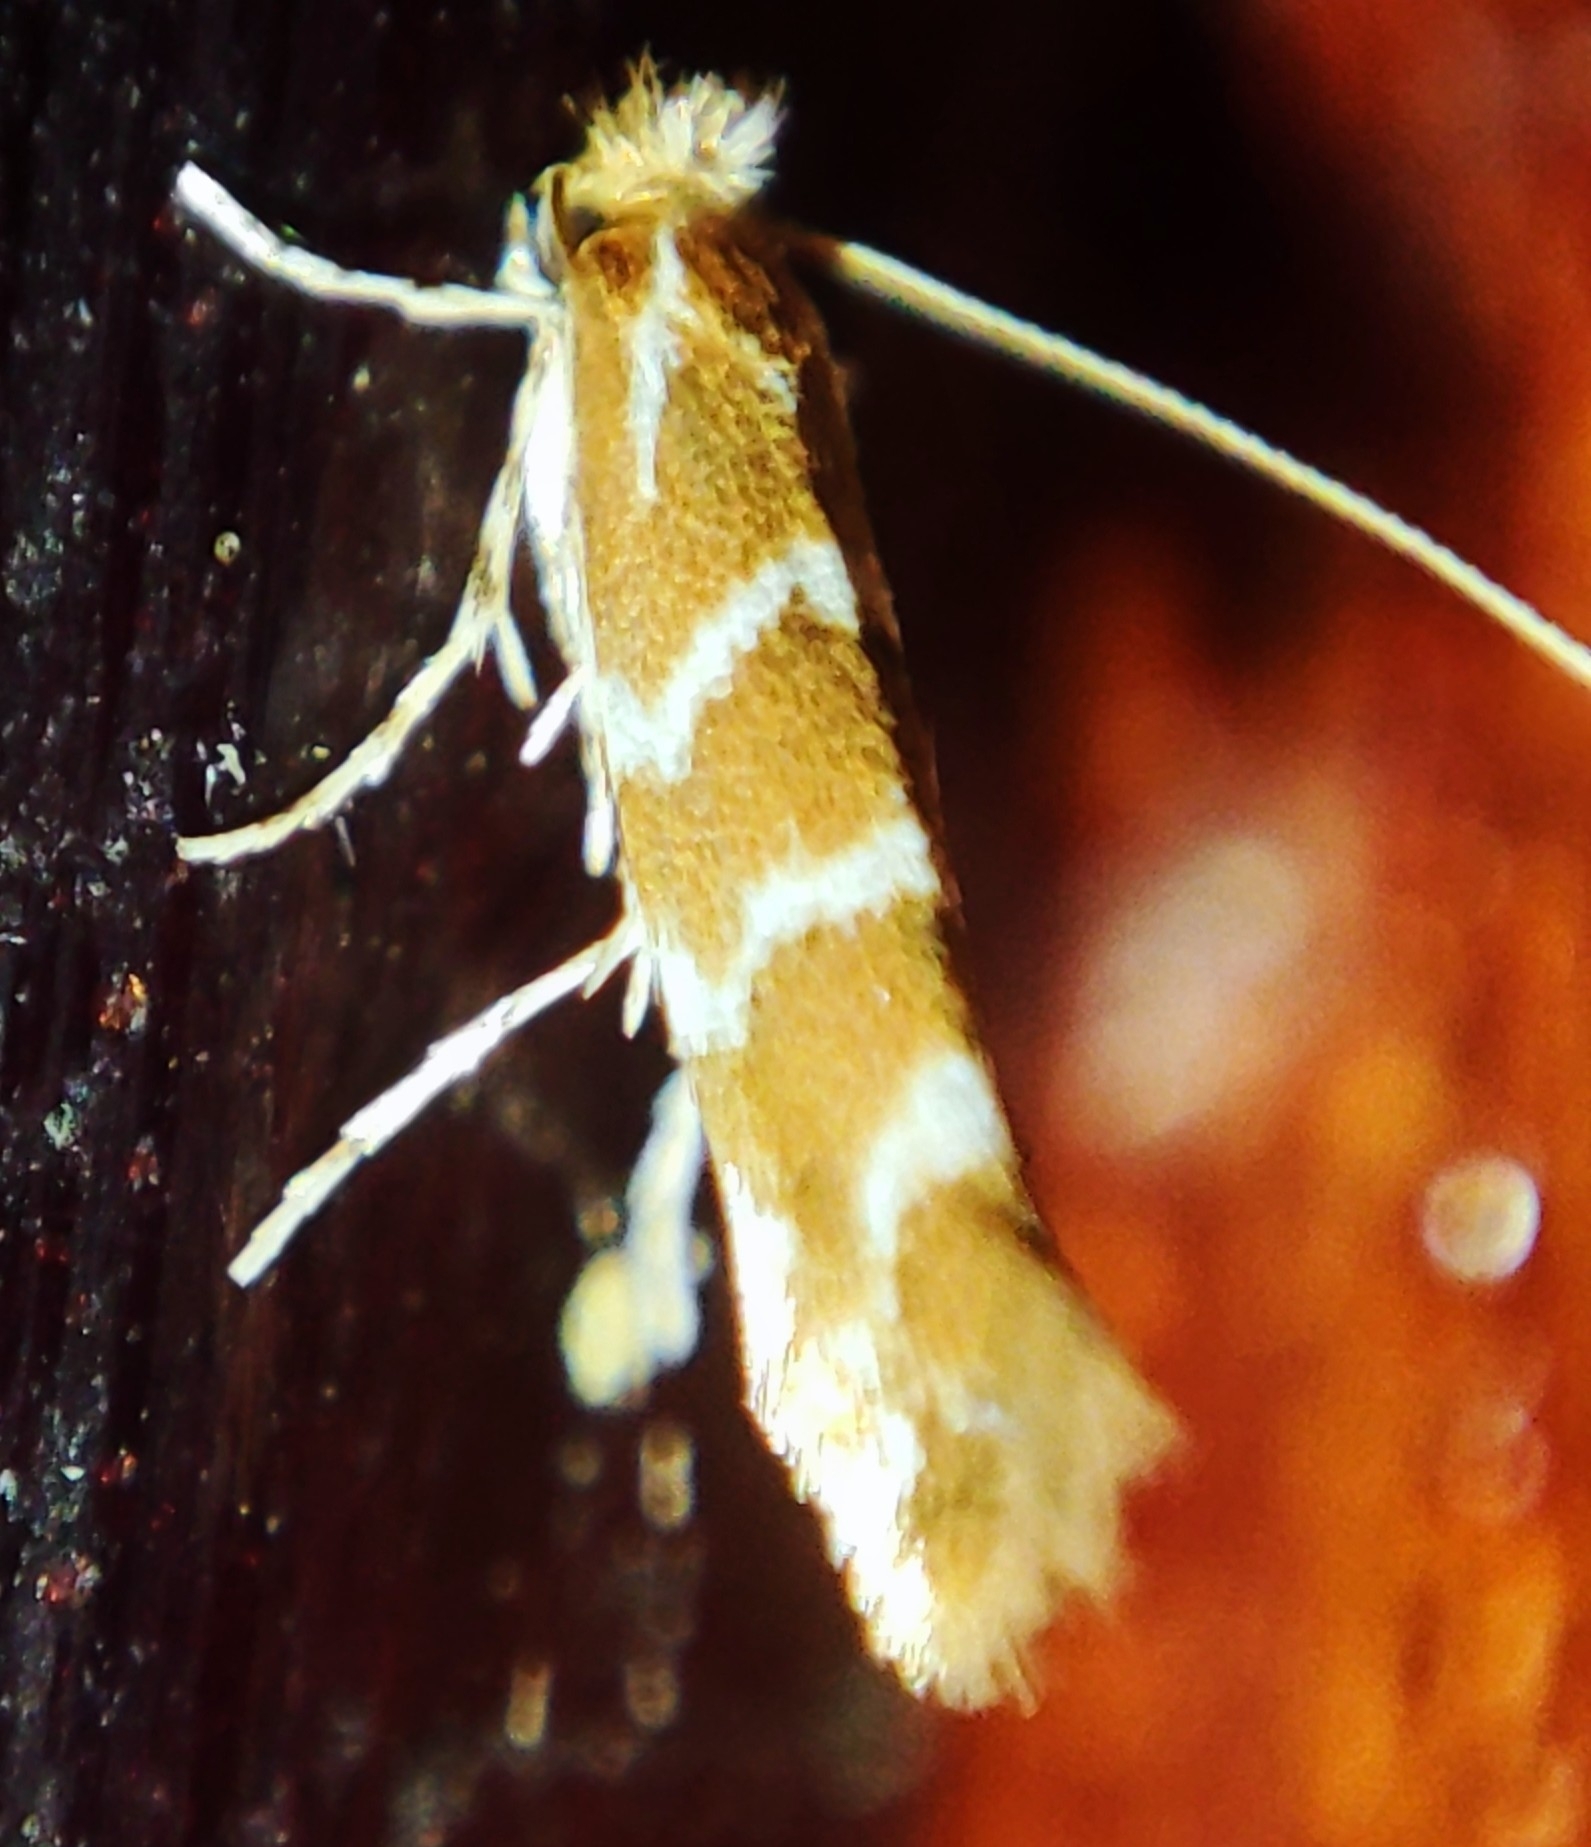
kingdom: Animalia
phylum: Arthropoda
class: Insecta
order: Lepidoptera
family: Gracillariidae
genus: Cameraria
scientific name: Cameraria ohridella
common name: Horse-chestnut leaf-miner
